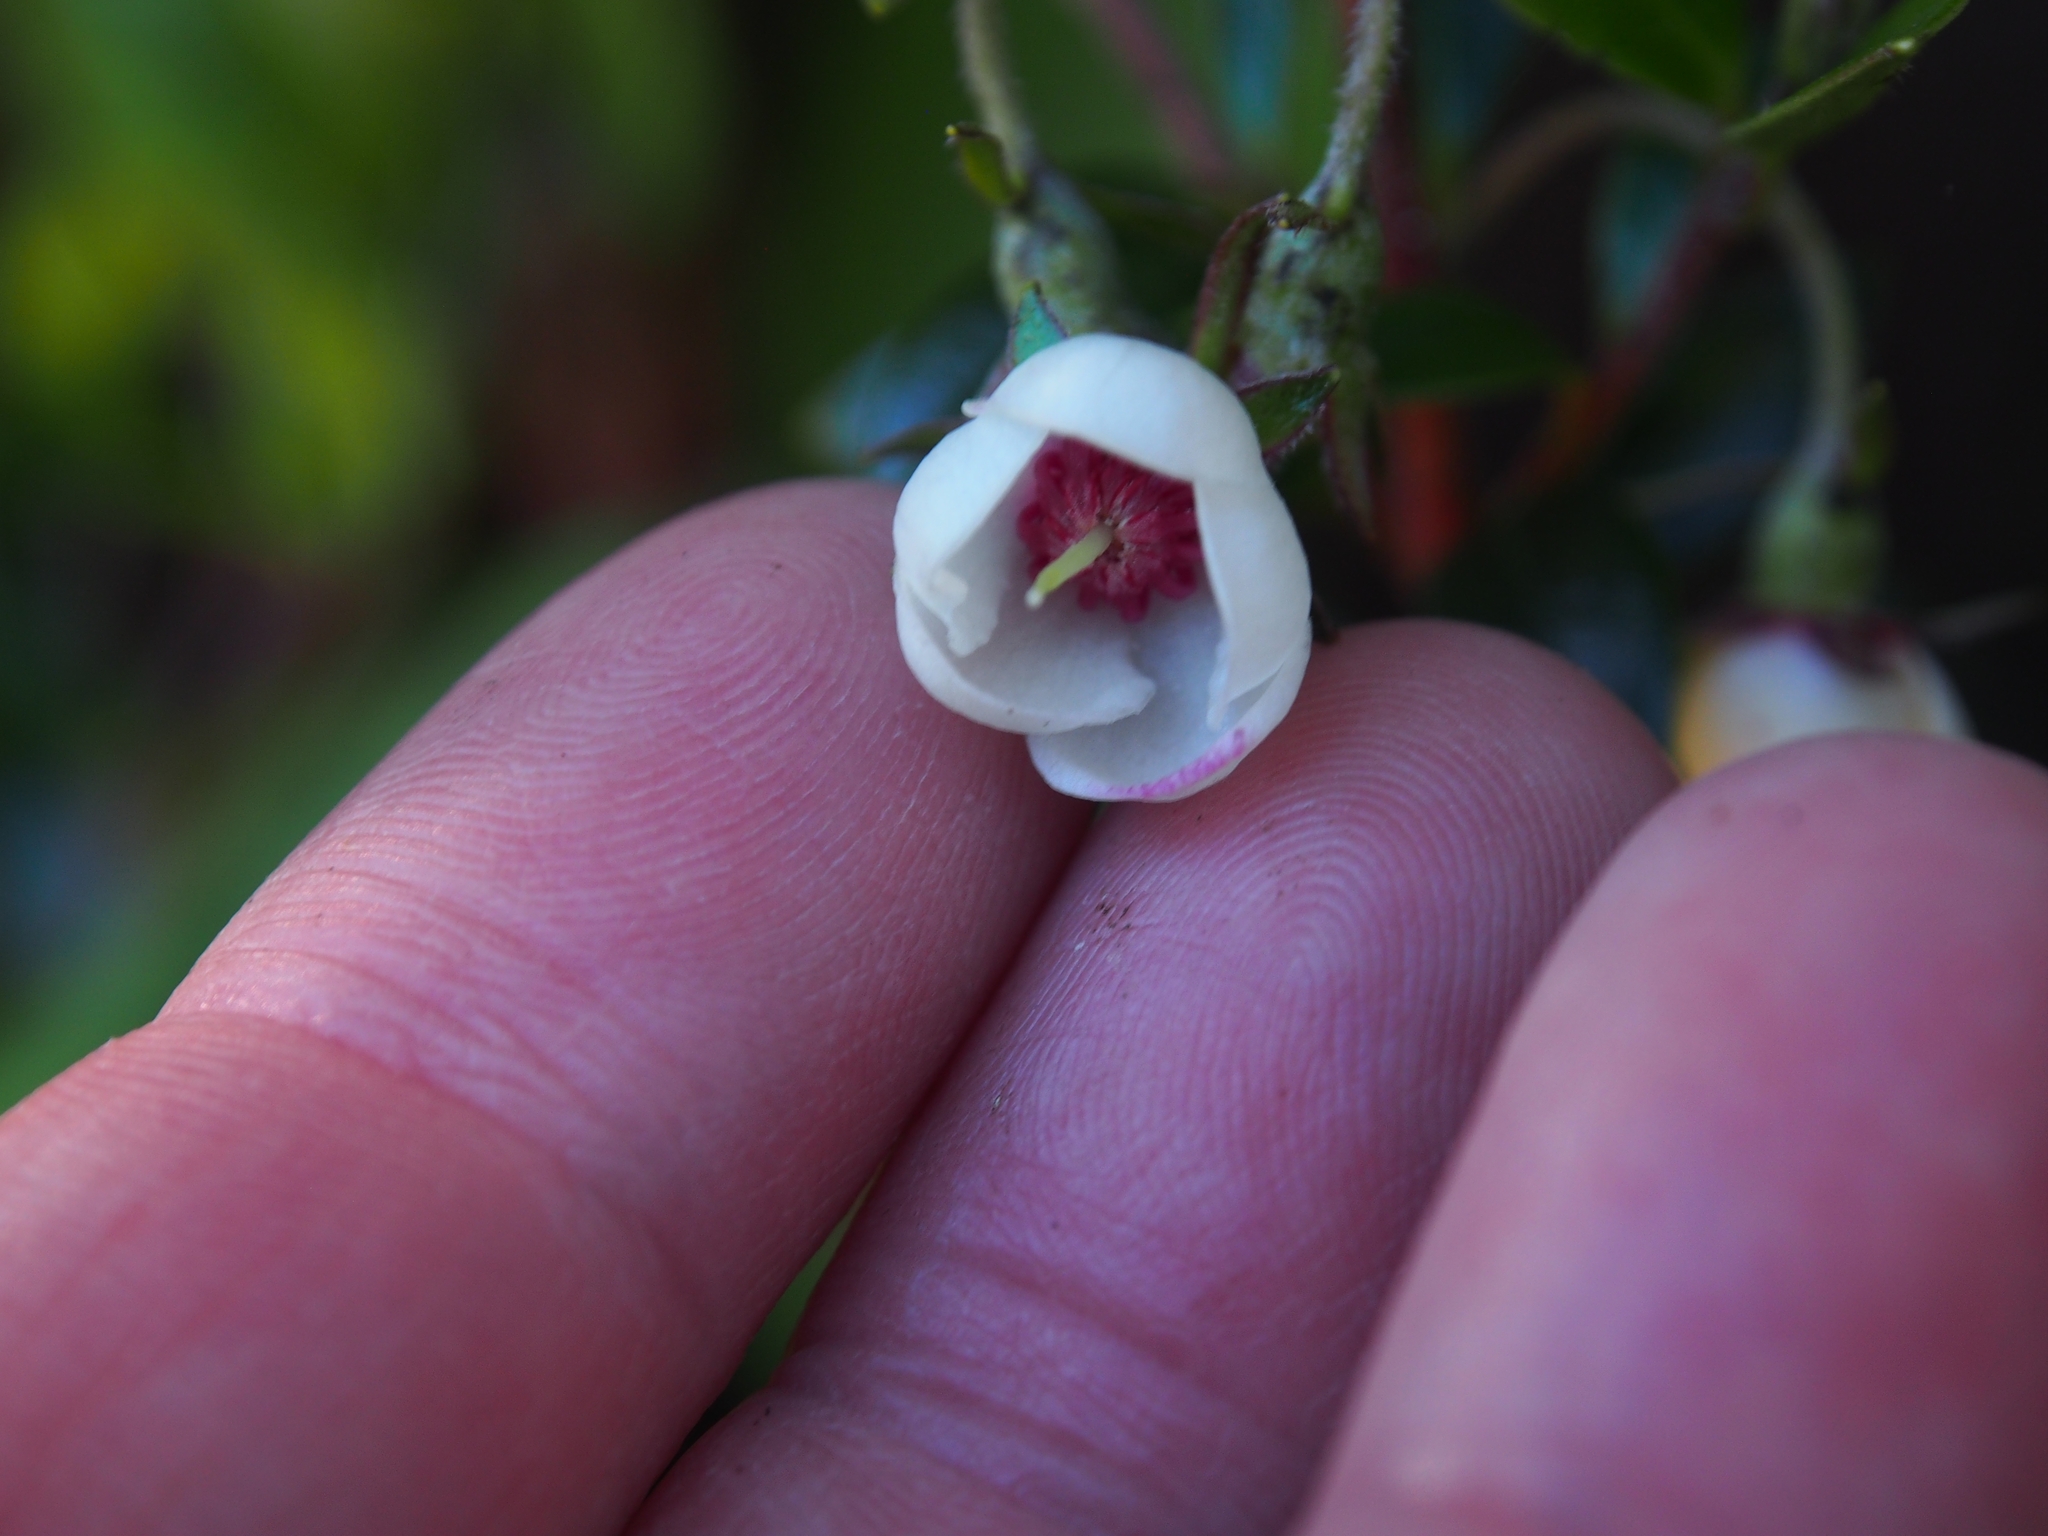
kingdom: Plantae
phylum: Tracheophyta
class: Magnoliopsida
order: Myrtales
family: Myrtaceae
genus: Ugni
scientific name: Ugni myricoides
